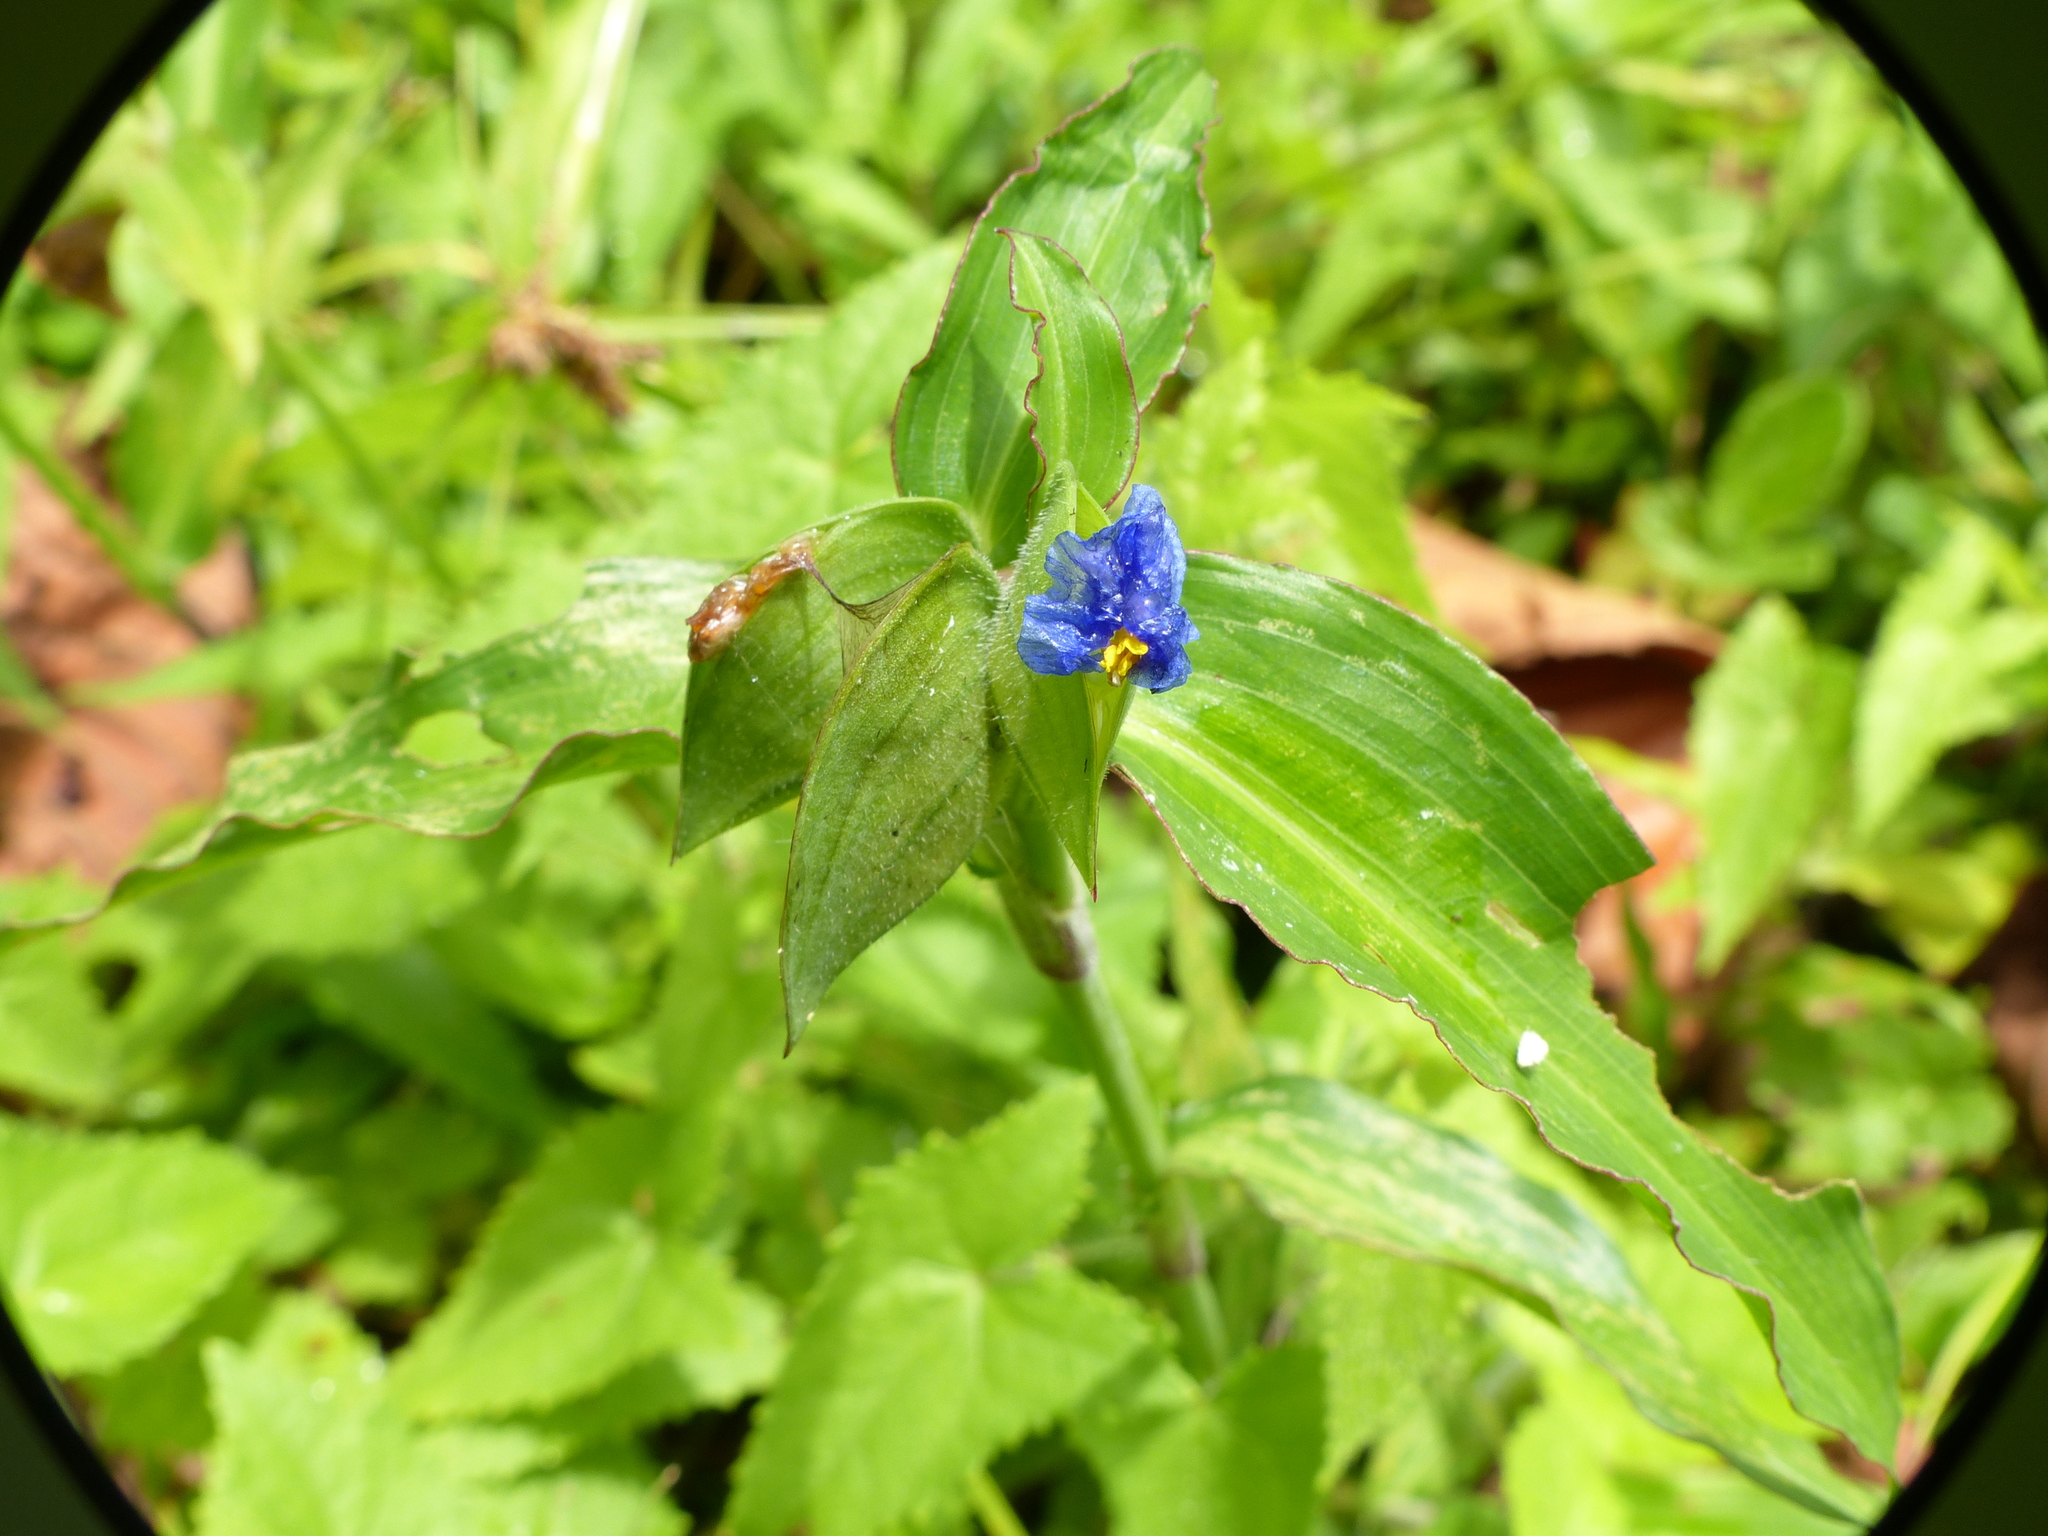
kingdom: Plantae
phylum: Tracheophyta
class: Liliopsida
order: Commelinales
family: Commelinaceae
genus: Commelina
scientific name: Commelina erecta
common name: Blousel blommetjie
